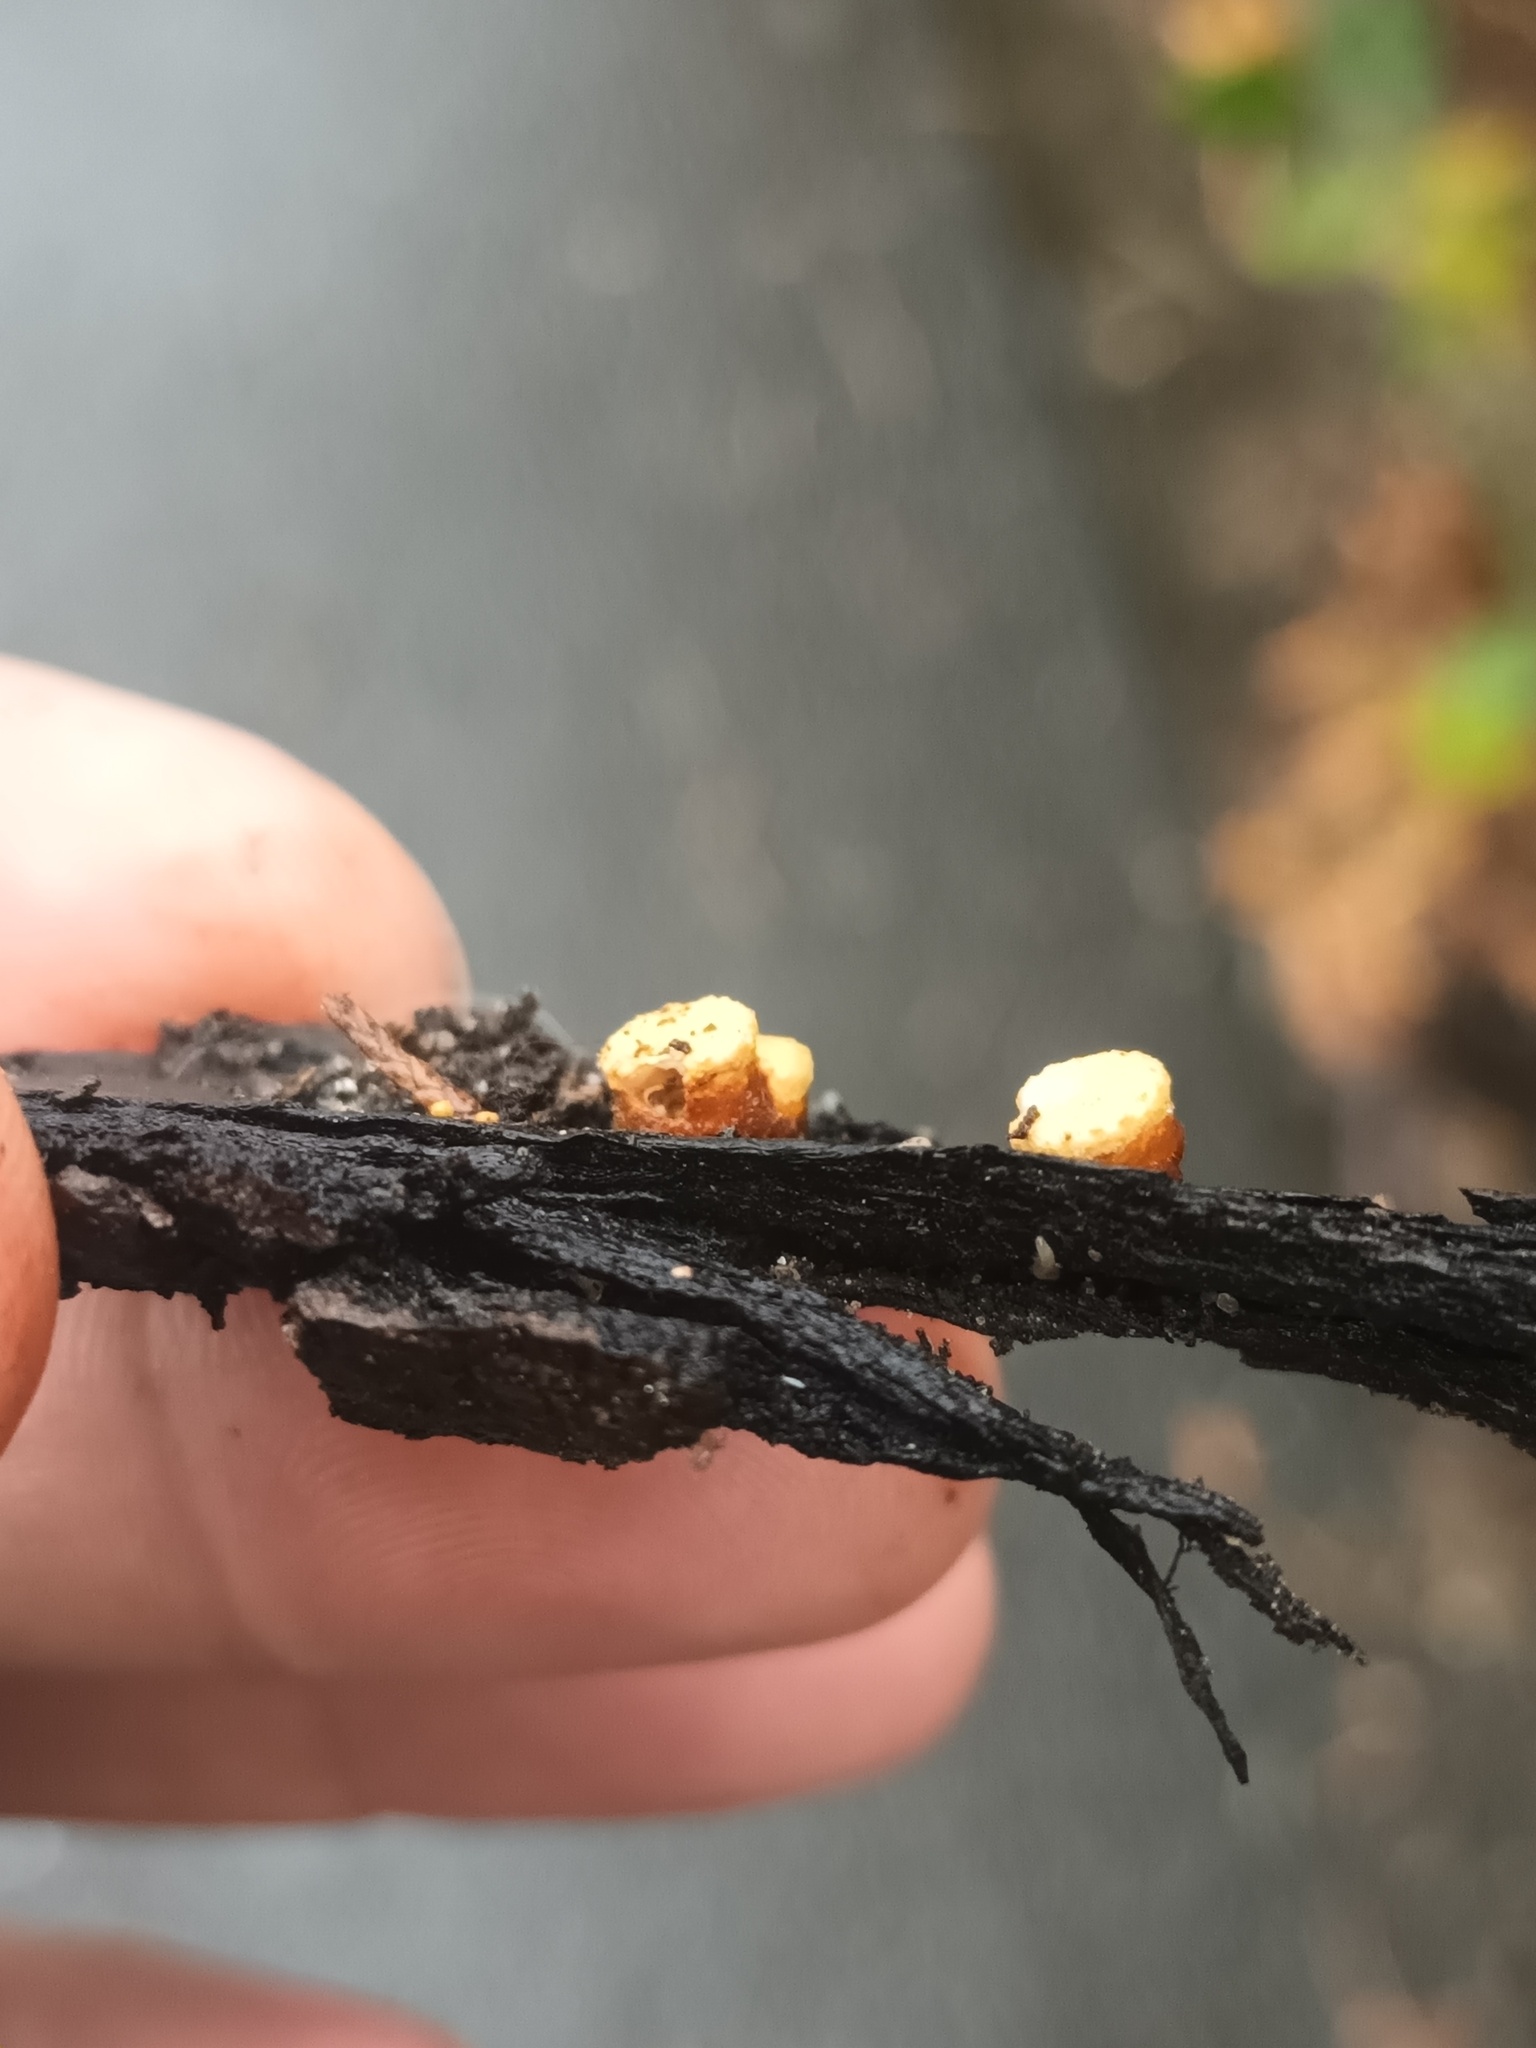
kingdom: Fungi
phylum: Basidiomycota
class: Agaricomycetes
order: Agaricales
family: Nidulariaceae
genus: Crucibulum
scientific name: Crucibulum laeve
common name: Common bird's nest
